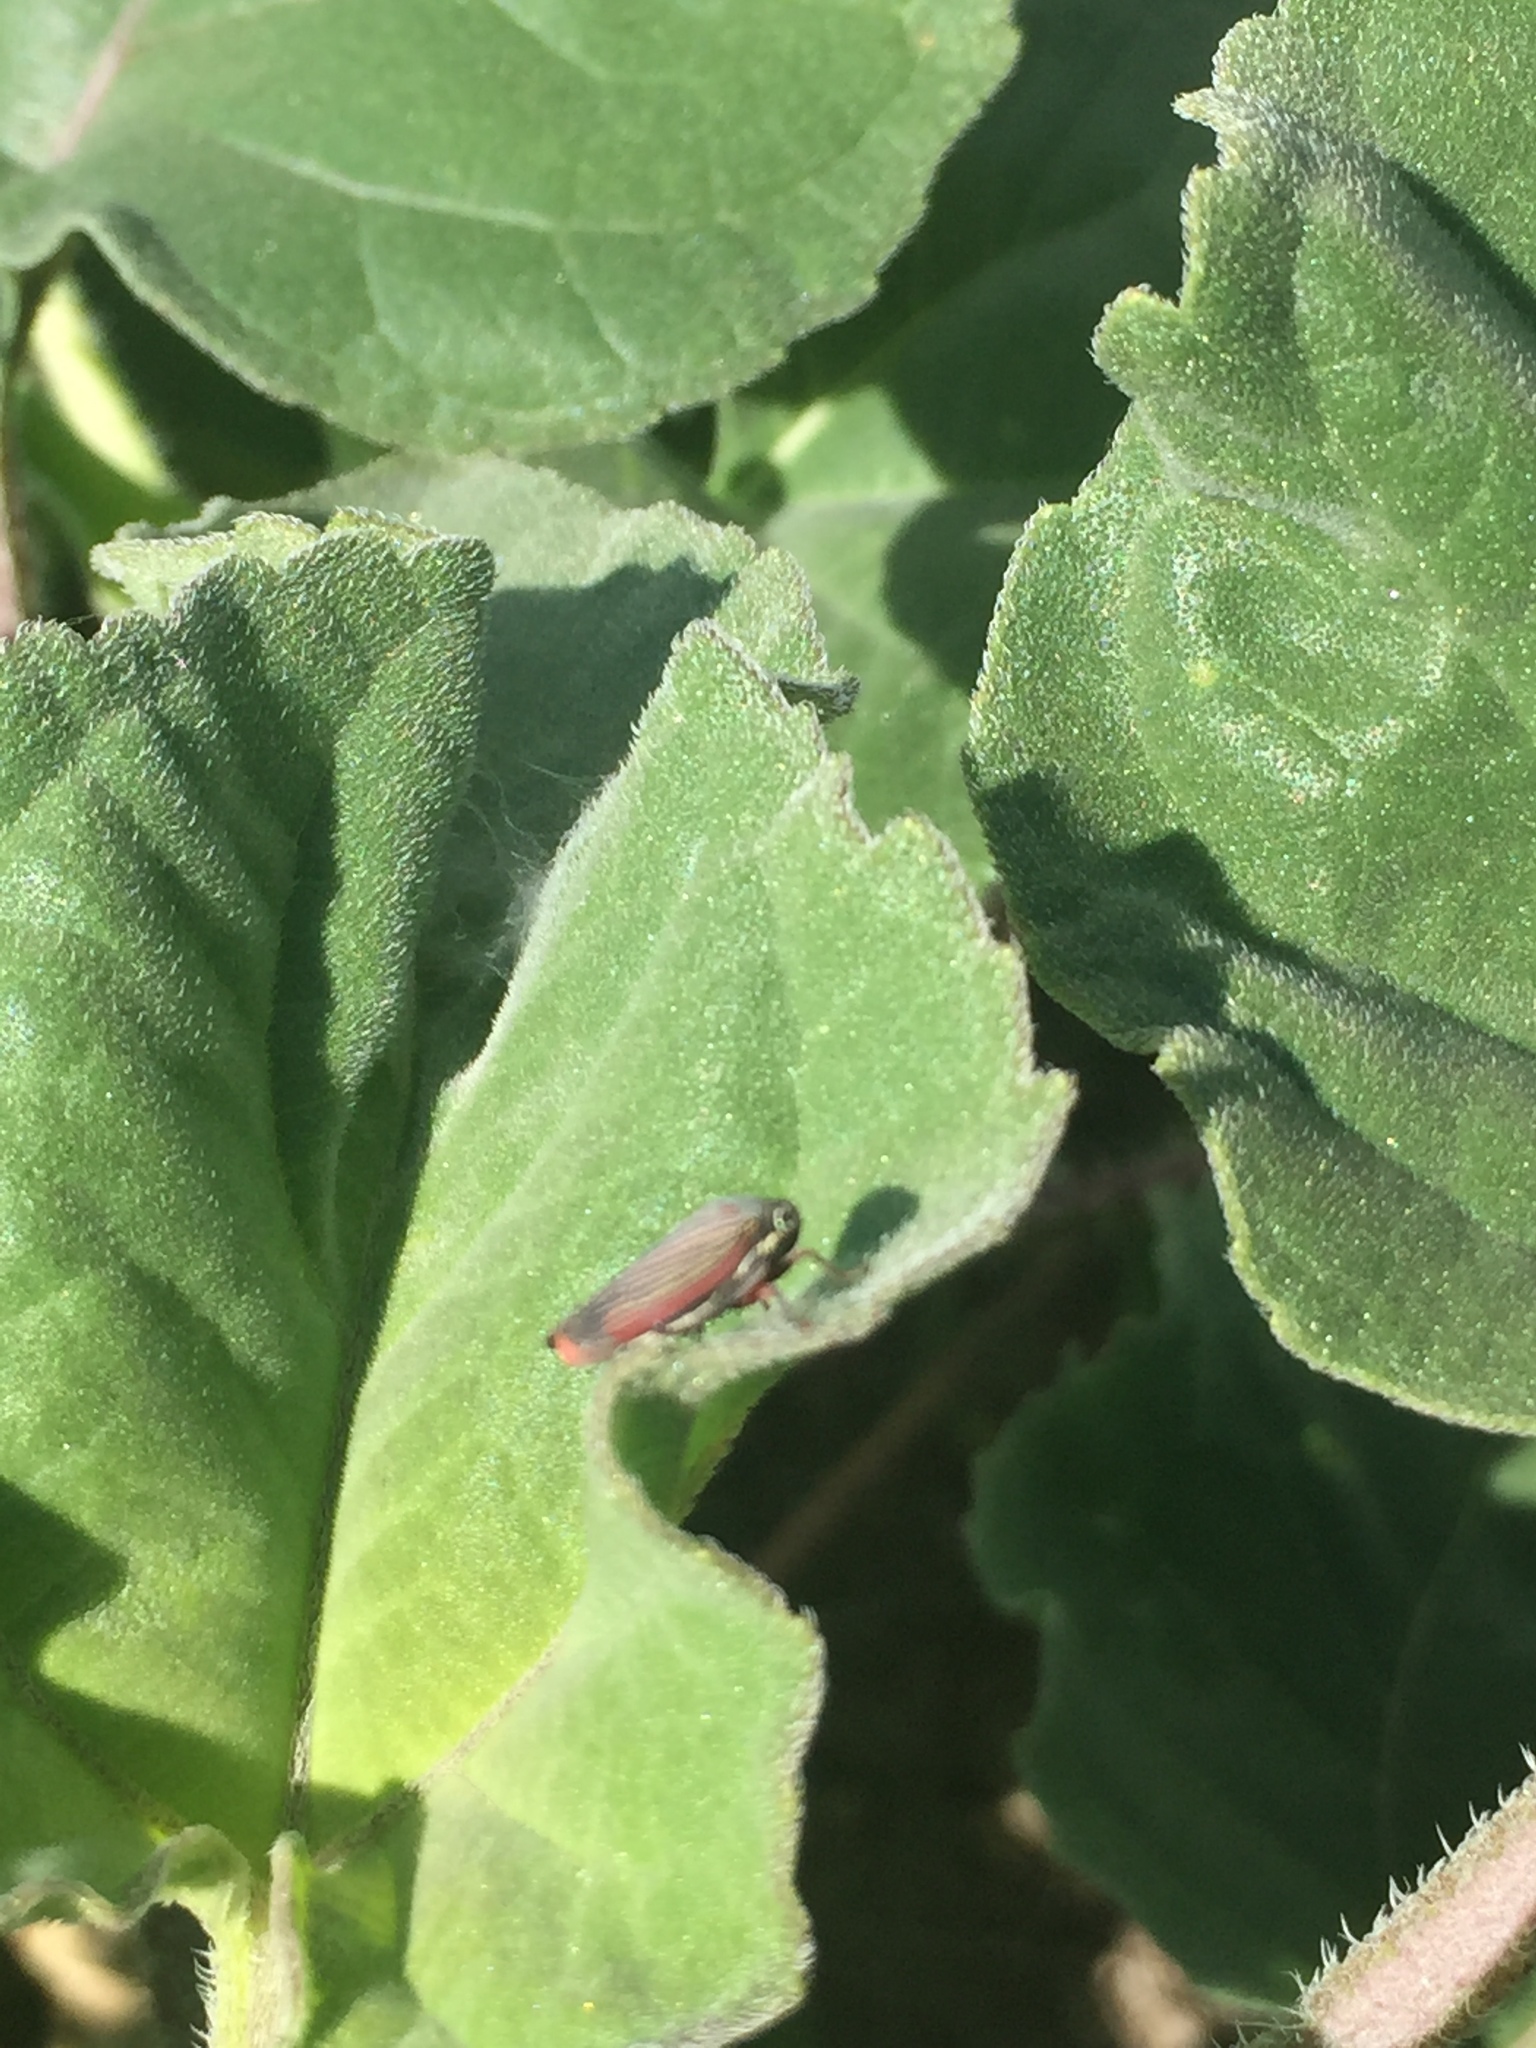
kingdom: Animalia
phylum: Arthropoda
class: Insecta
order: Hemiptera
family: Cicadellidae
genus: Cuerna
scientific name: Cuerna costalis
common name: Lateral-lined sharpshooter
